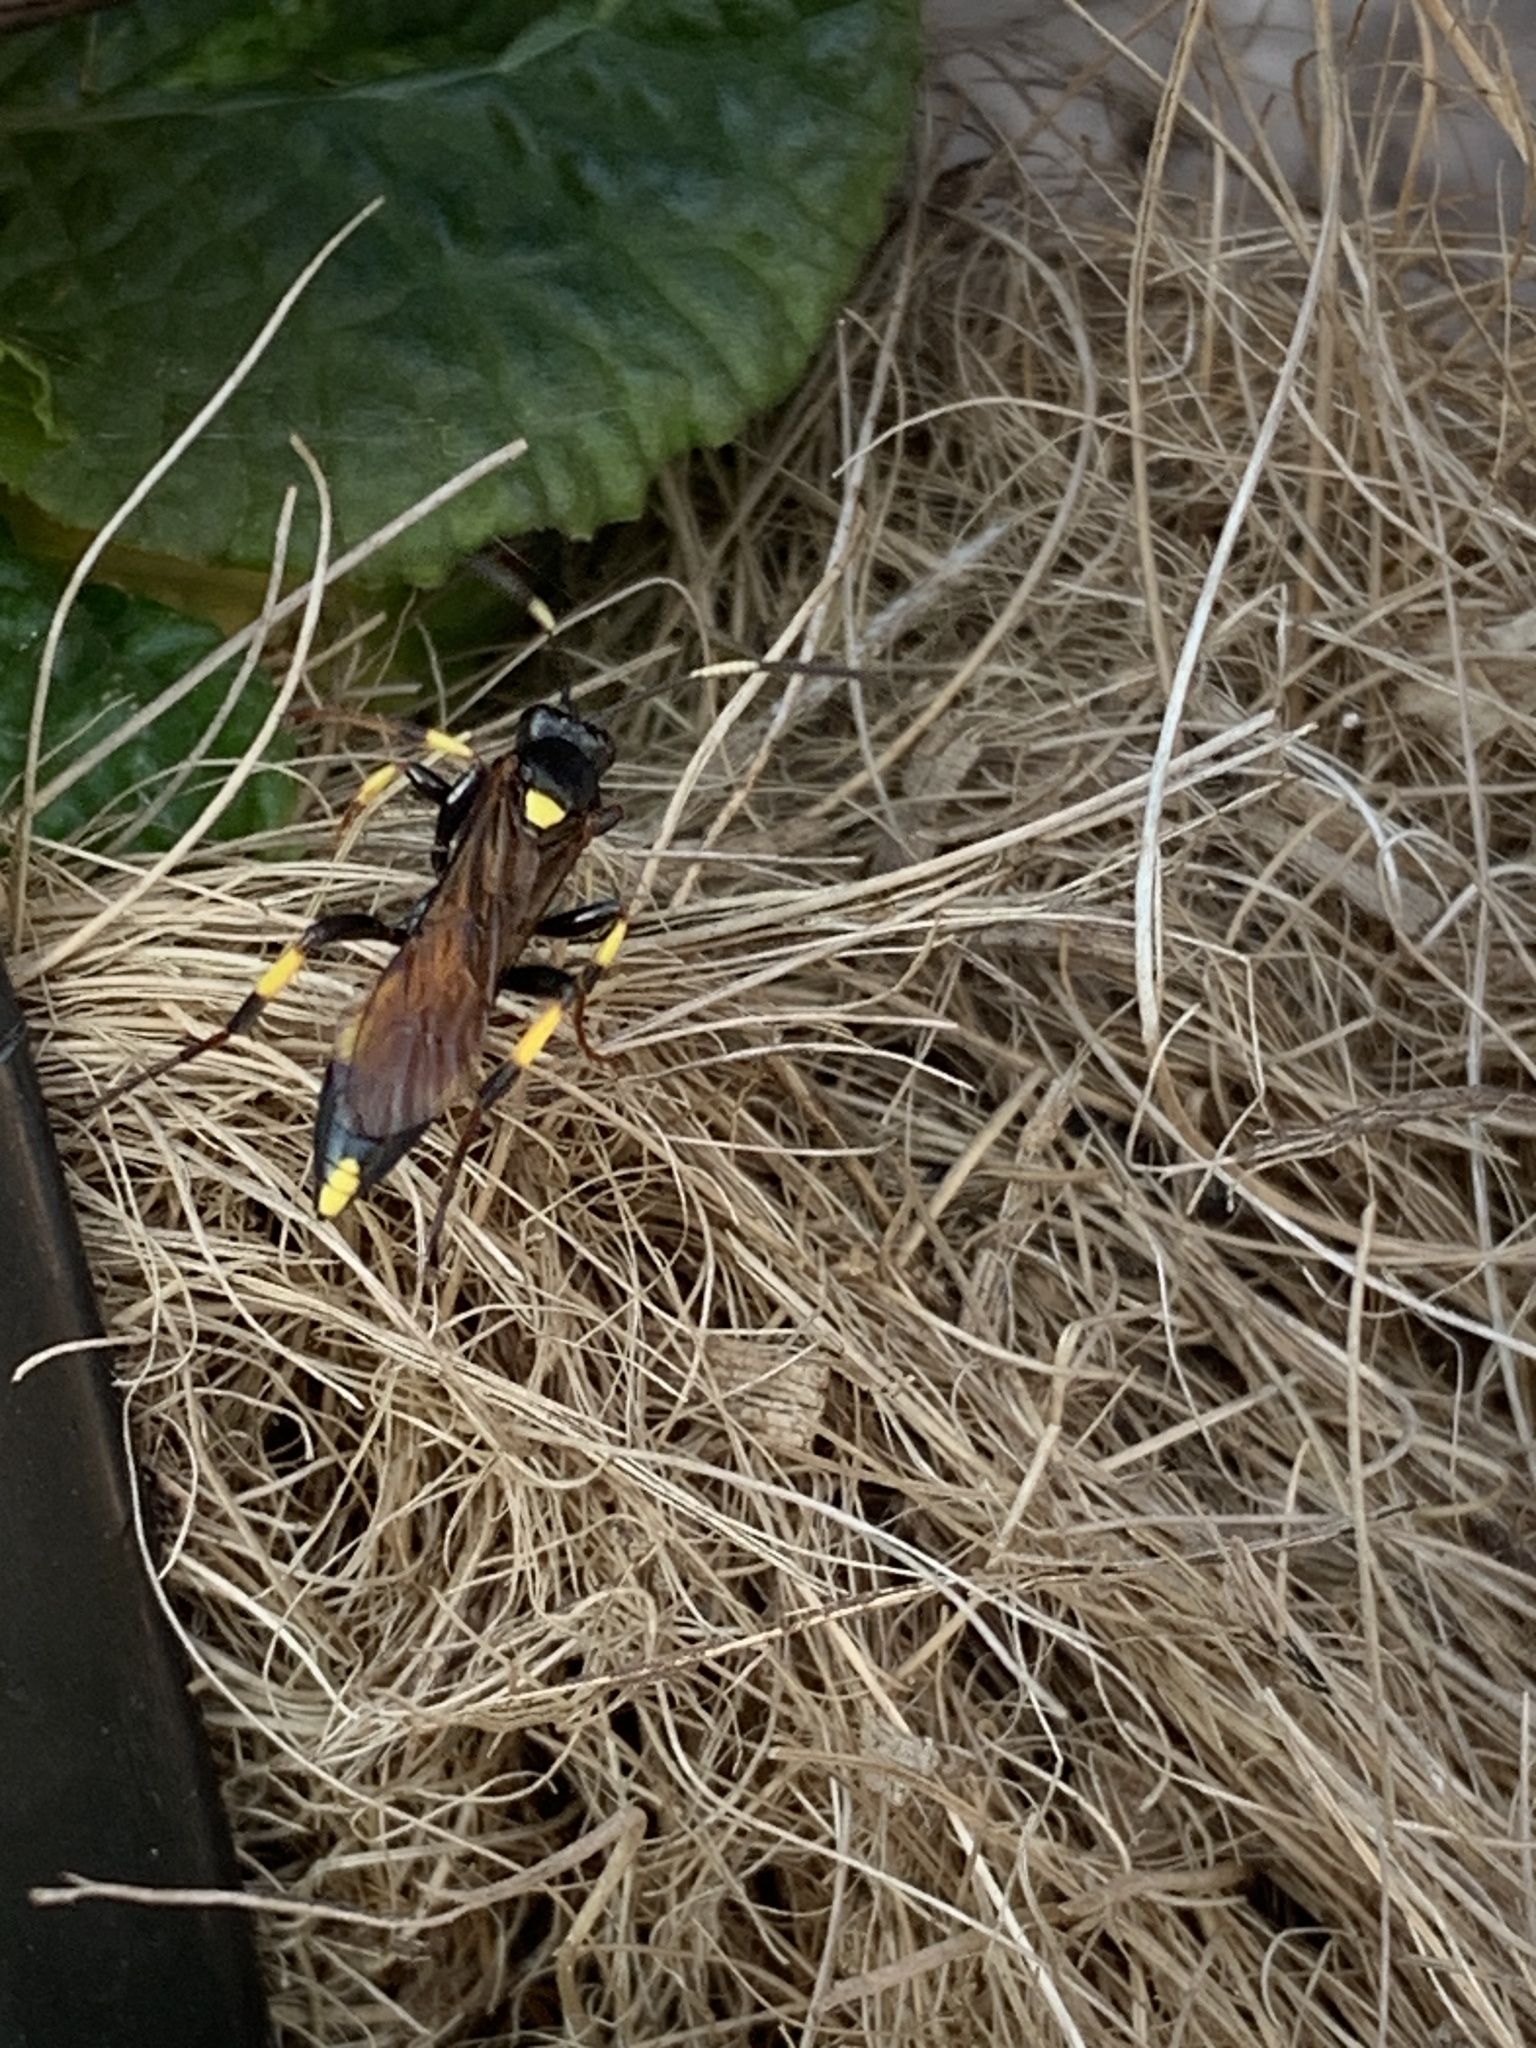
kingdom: Animalia
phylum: Arthropoda
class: Insecta
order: Hymenoptera
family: Ichneumonidae
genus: Ichneumon
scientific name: Ichneumon stramentor
